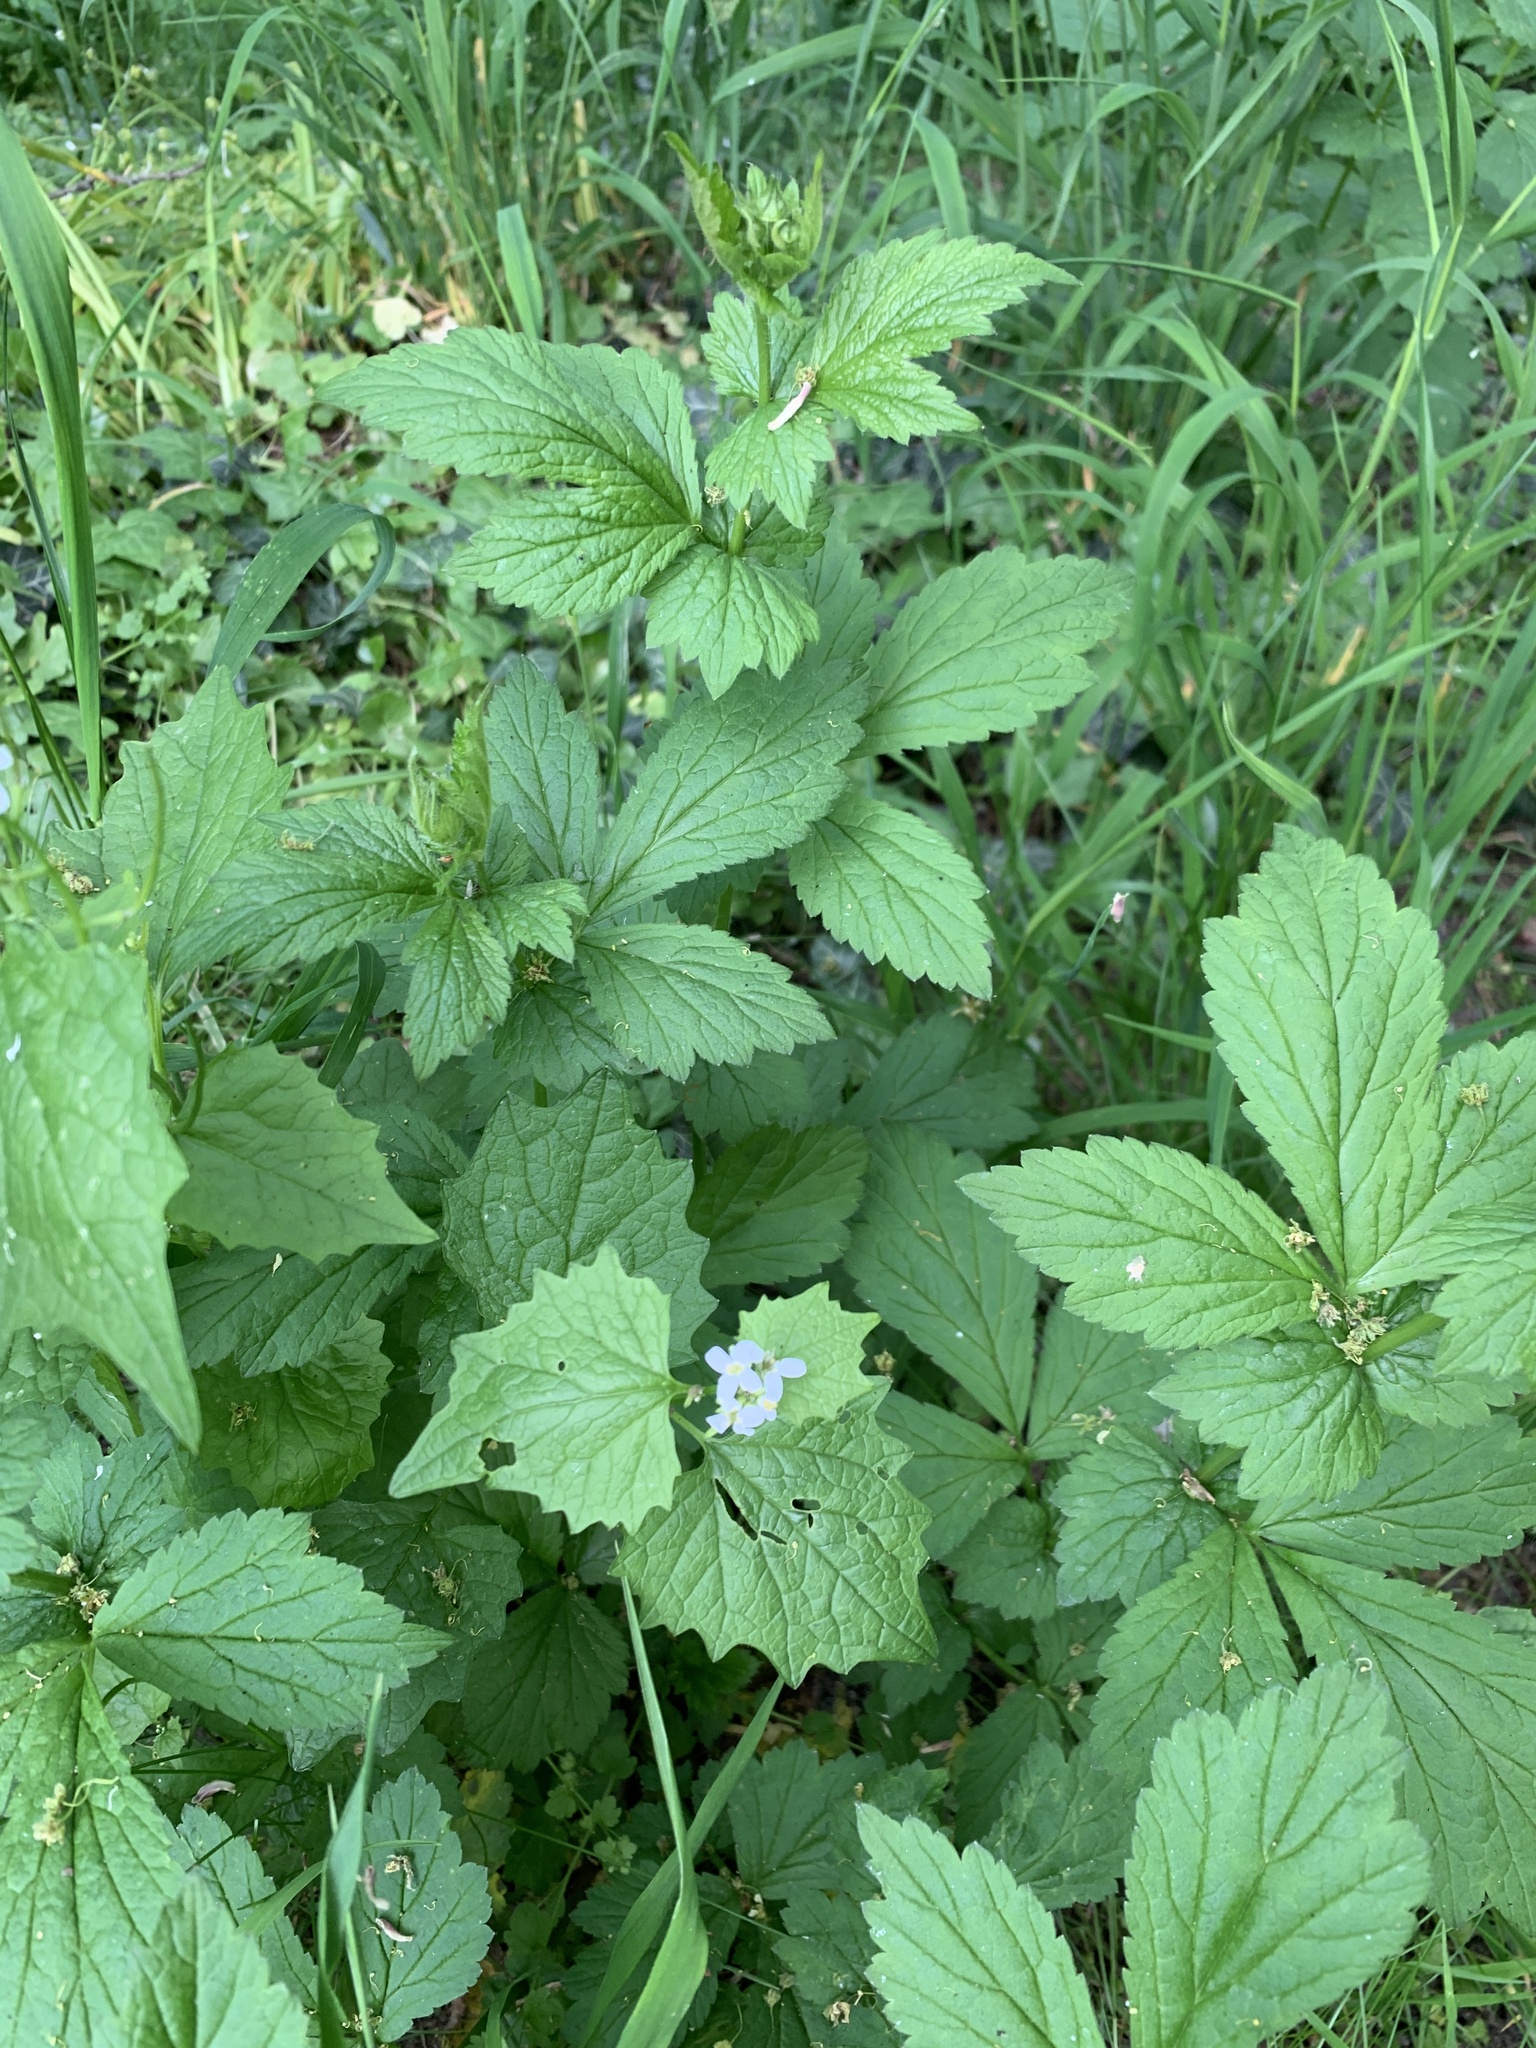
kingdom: Plantae
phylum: Tracheophyta
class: Magnoliopsida
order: Brassicales
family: Brassicaceae
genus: Alliaria
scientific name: Alliaria petiolata
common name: Garlic mustard
